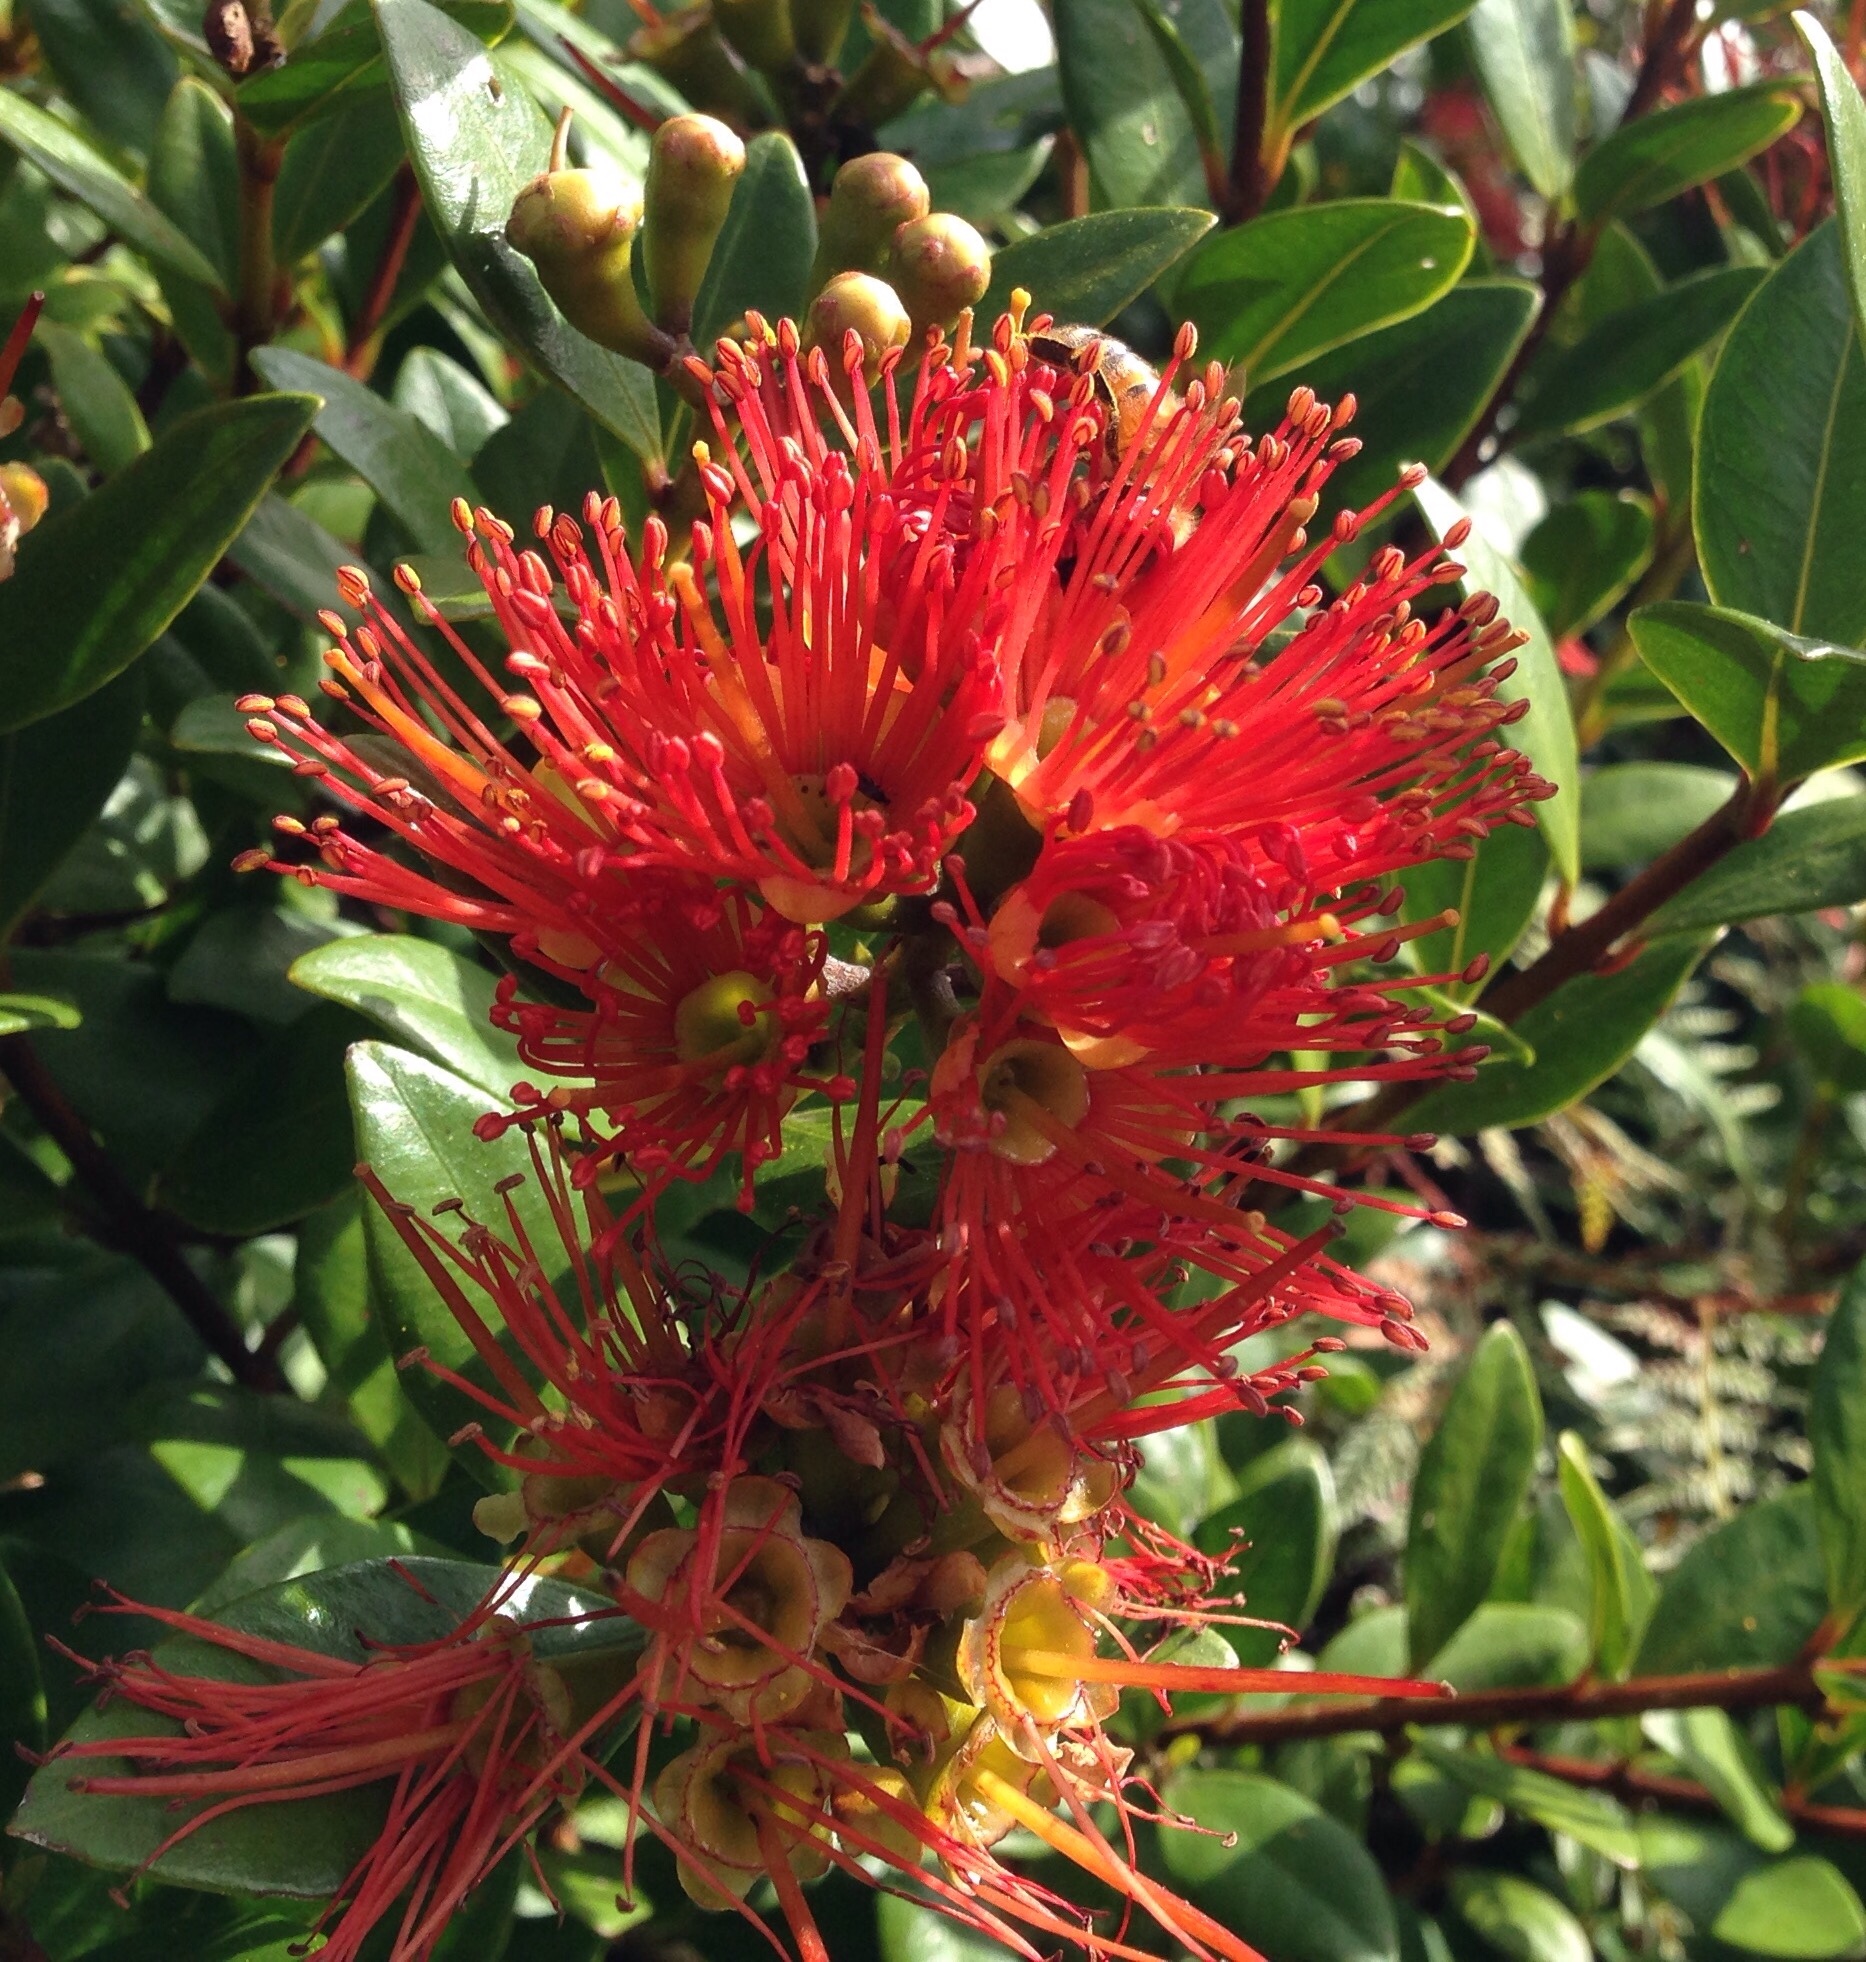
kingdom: Plantae
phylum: Tracheophyta
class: Magnoliopsida
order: Myrtales
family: Myrtaceae
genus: Metrosideros
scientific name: Metrosideros fulgens
